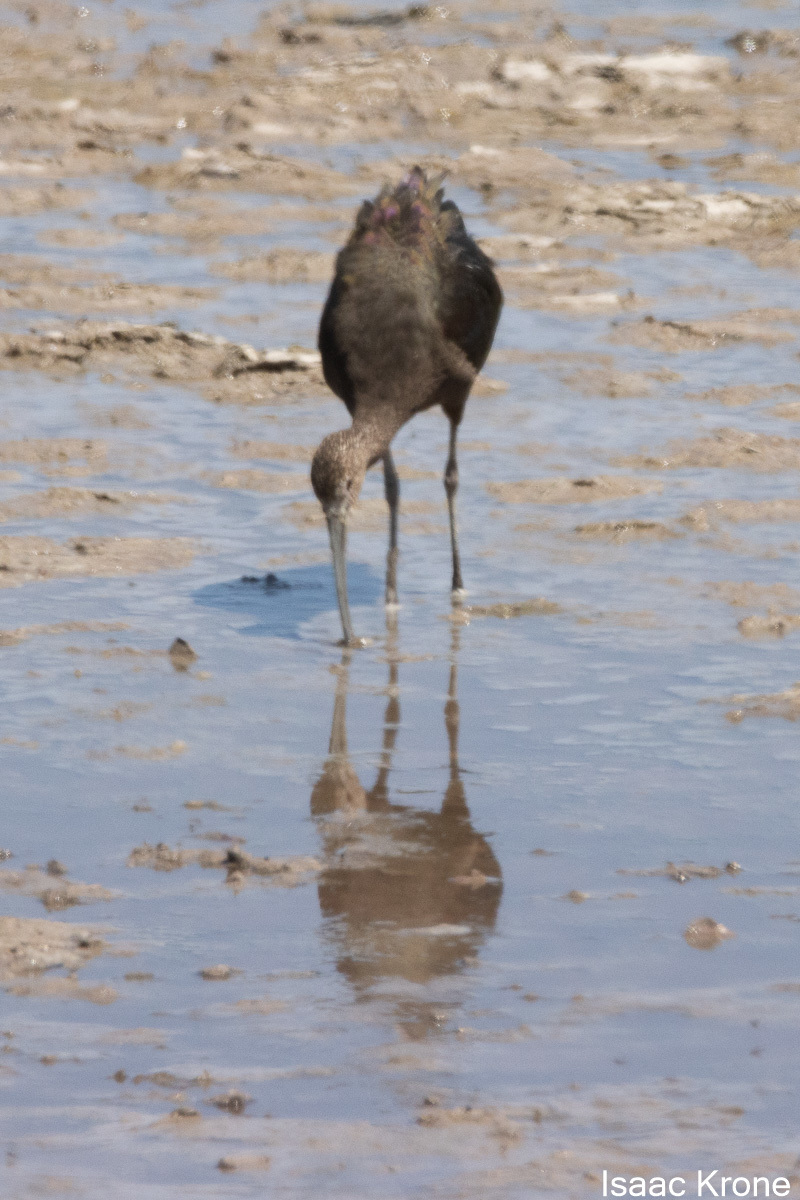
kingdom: Animalia
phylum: Chordata
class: Aves
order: Pelecaniformes
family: Threskiornithidae
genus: Plegadis
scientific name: Plegadis chihi
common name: White-faced ibis
